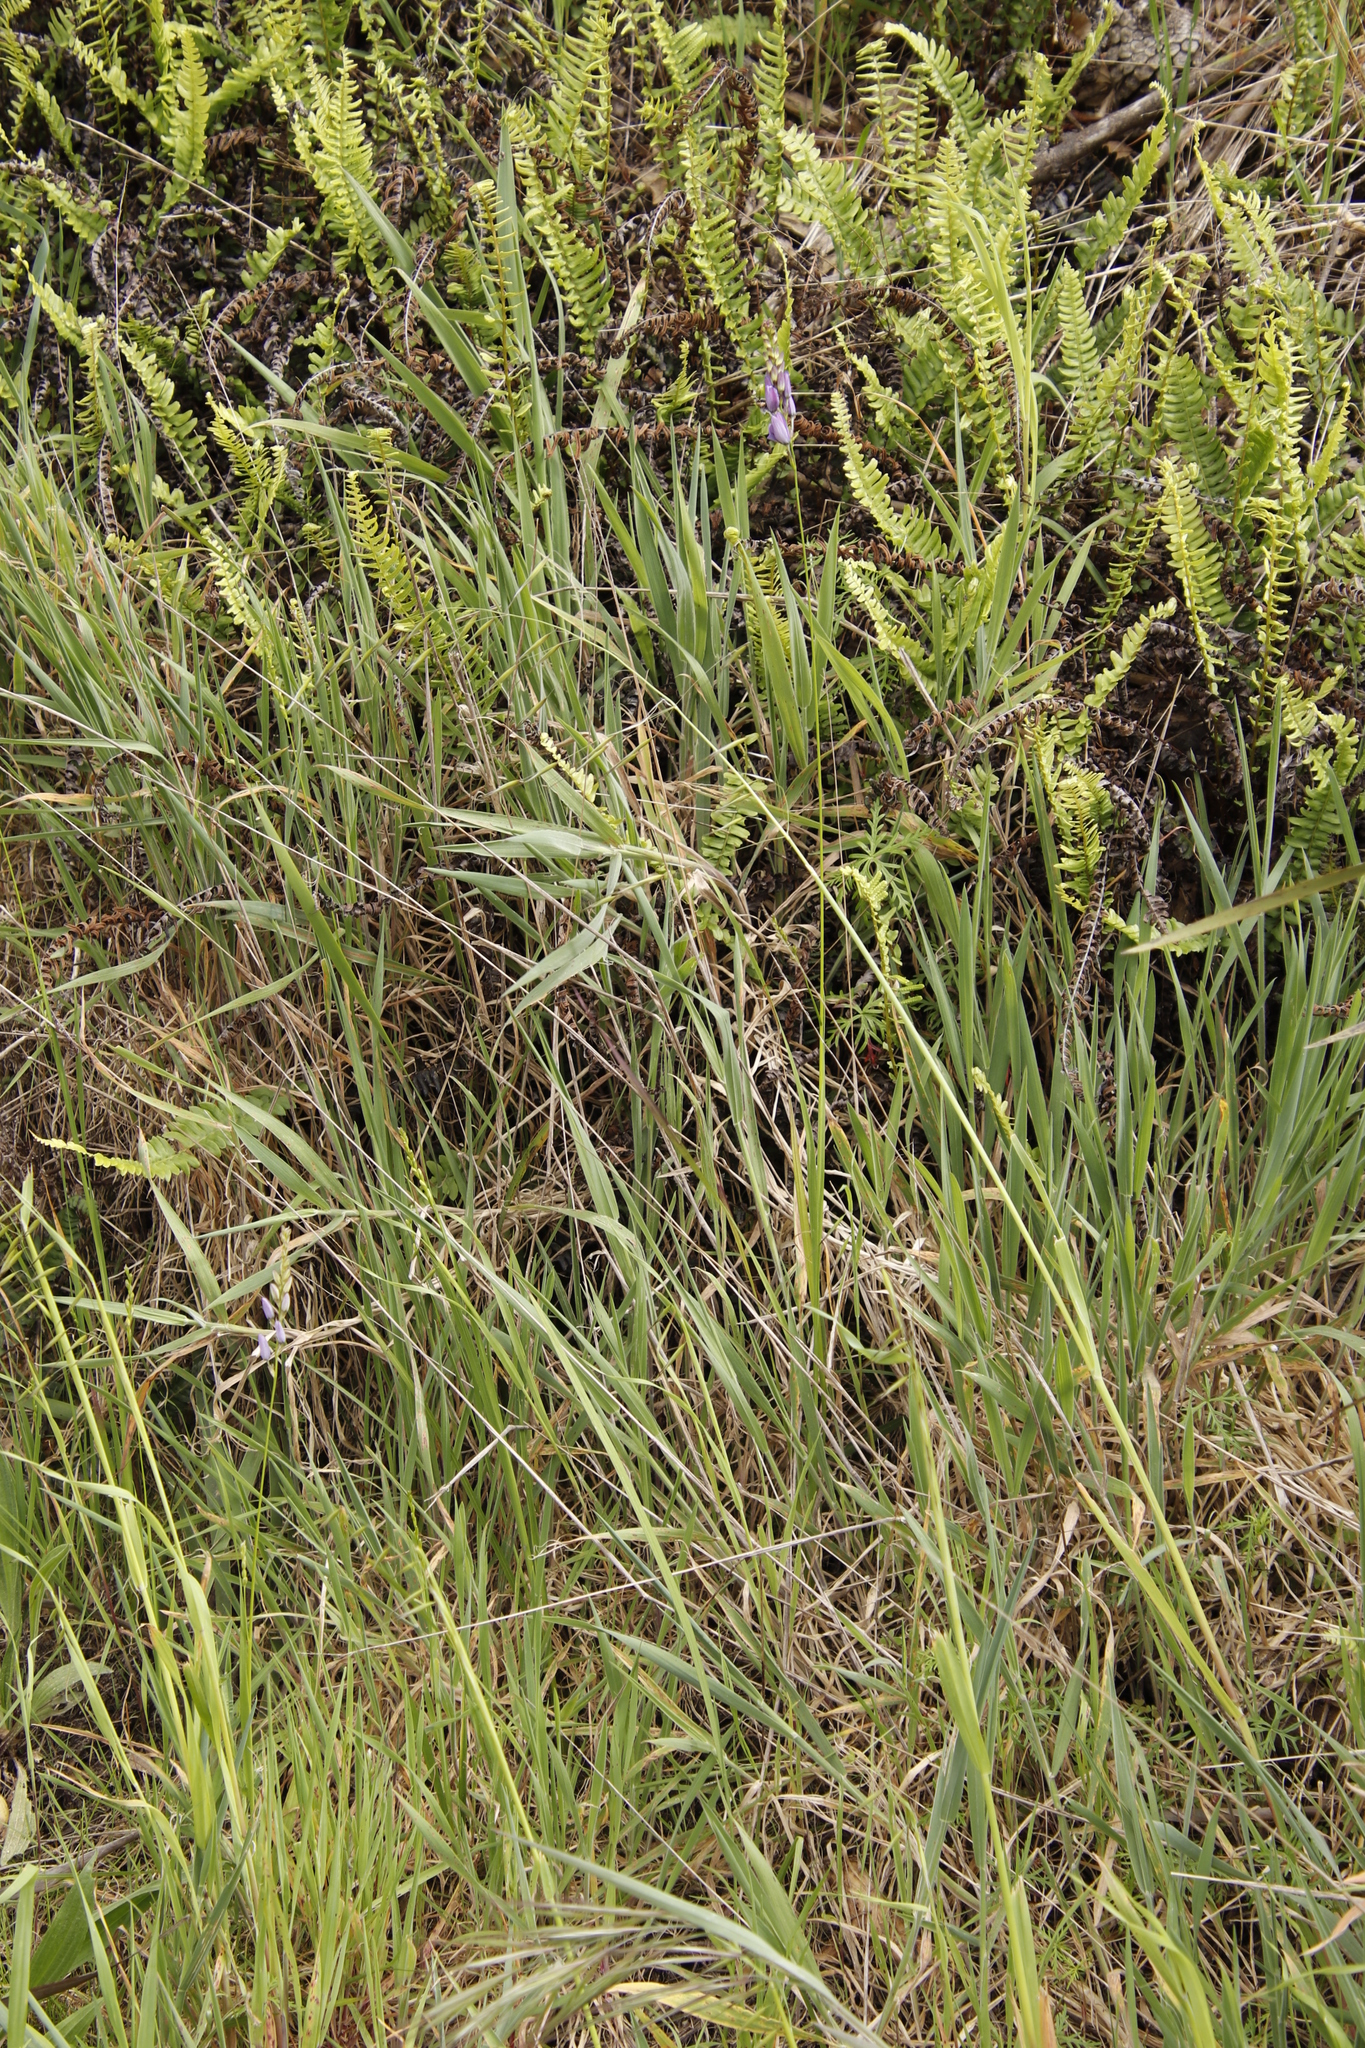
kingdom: Plantae
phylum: Tracheophyta
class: Liliopsida
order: Asparagales
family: Iridaceae
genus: Ixia
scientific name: Ixia polystachya
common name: White-and-yellow-flower cornlily
